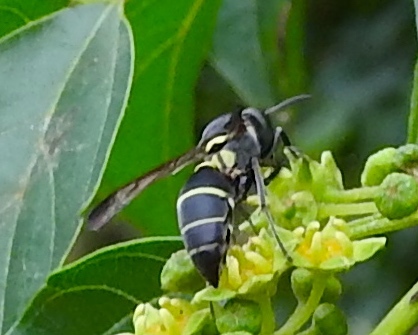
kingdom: Animalia
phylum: Arthropoda
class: Insecta
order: Hymenoptera
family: Vespidae
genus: Myrapetra
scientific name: Myrapetra
